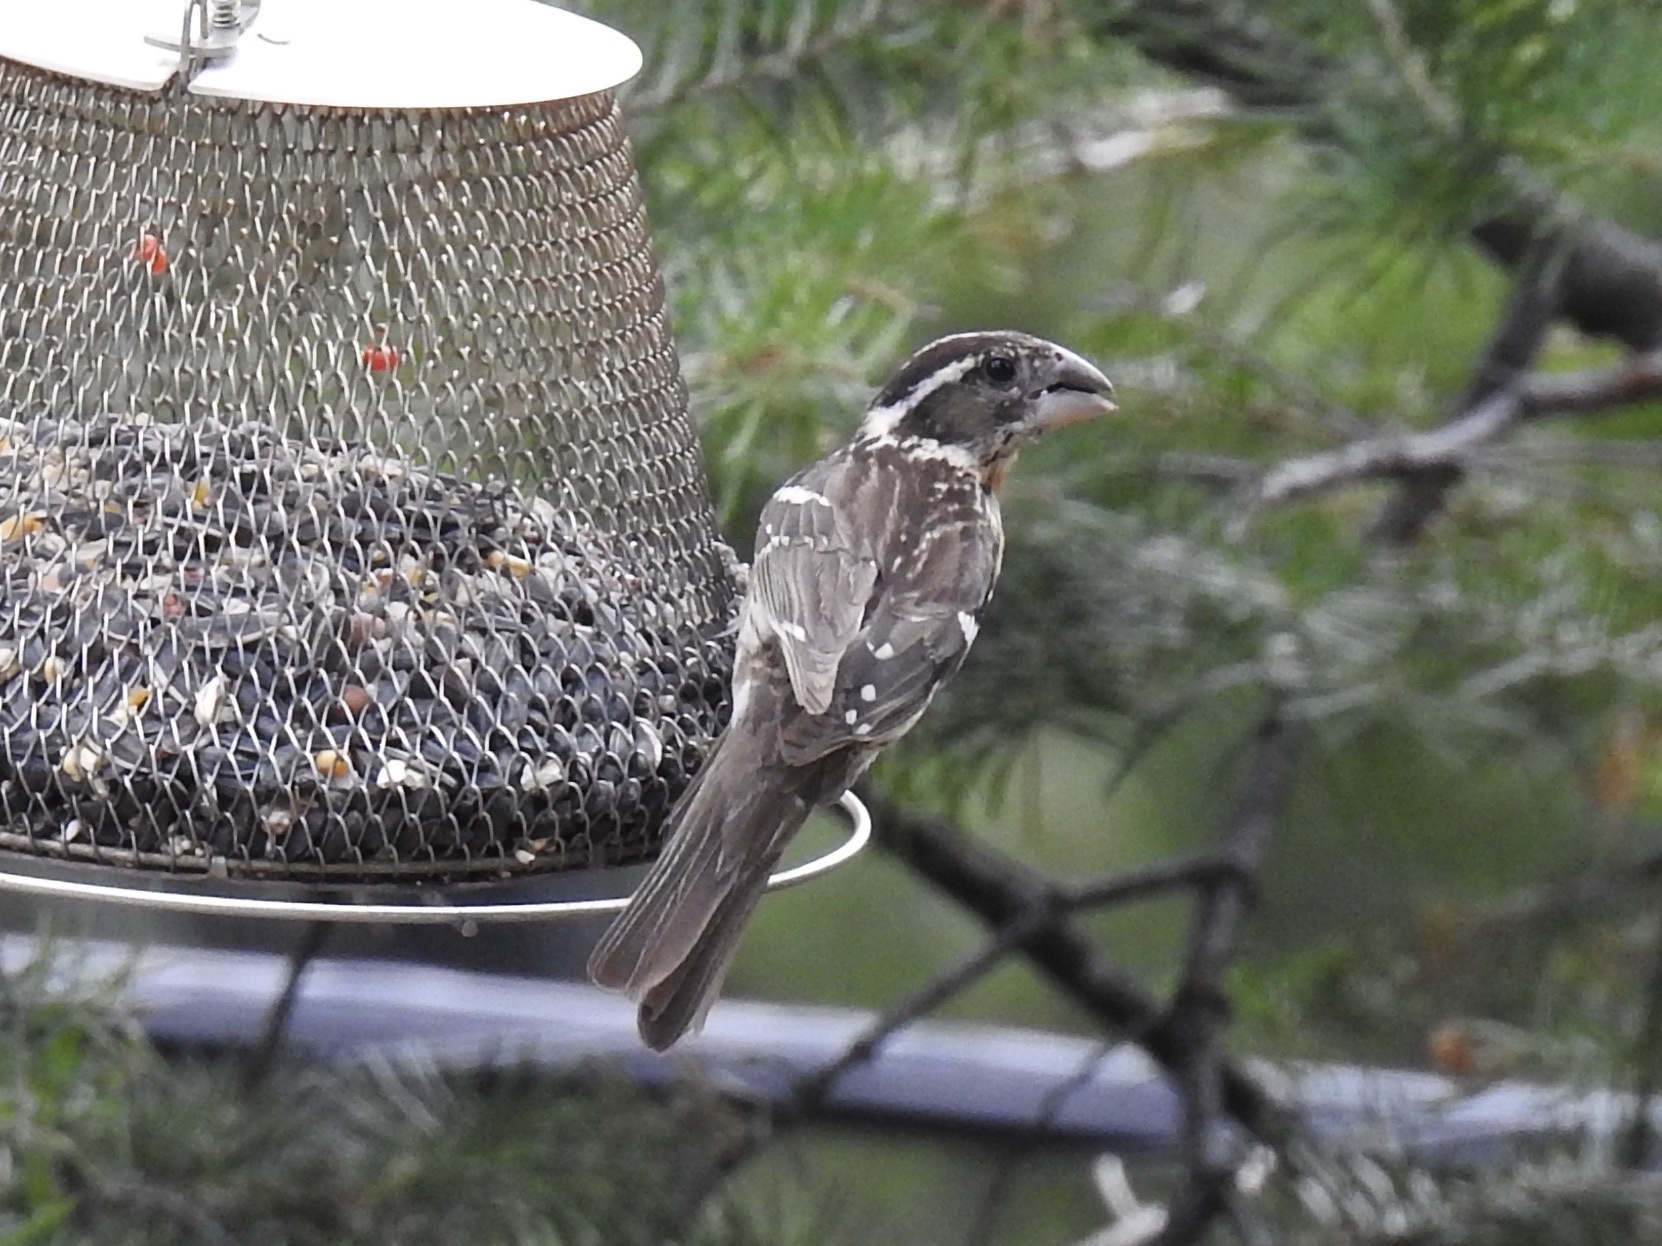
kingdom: Animalia
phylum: Chordata
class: Aves
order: Passeriformes
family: Cardinalidae
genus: Pheucticus
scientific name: Pheucticus melanocephalus
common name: Black-headed grosbeak
